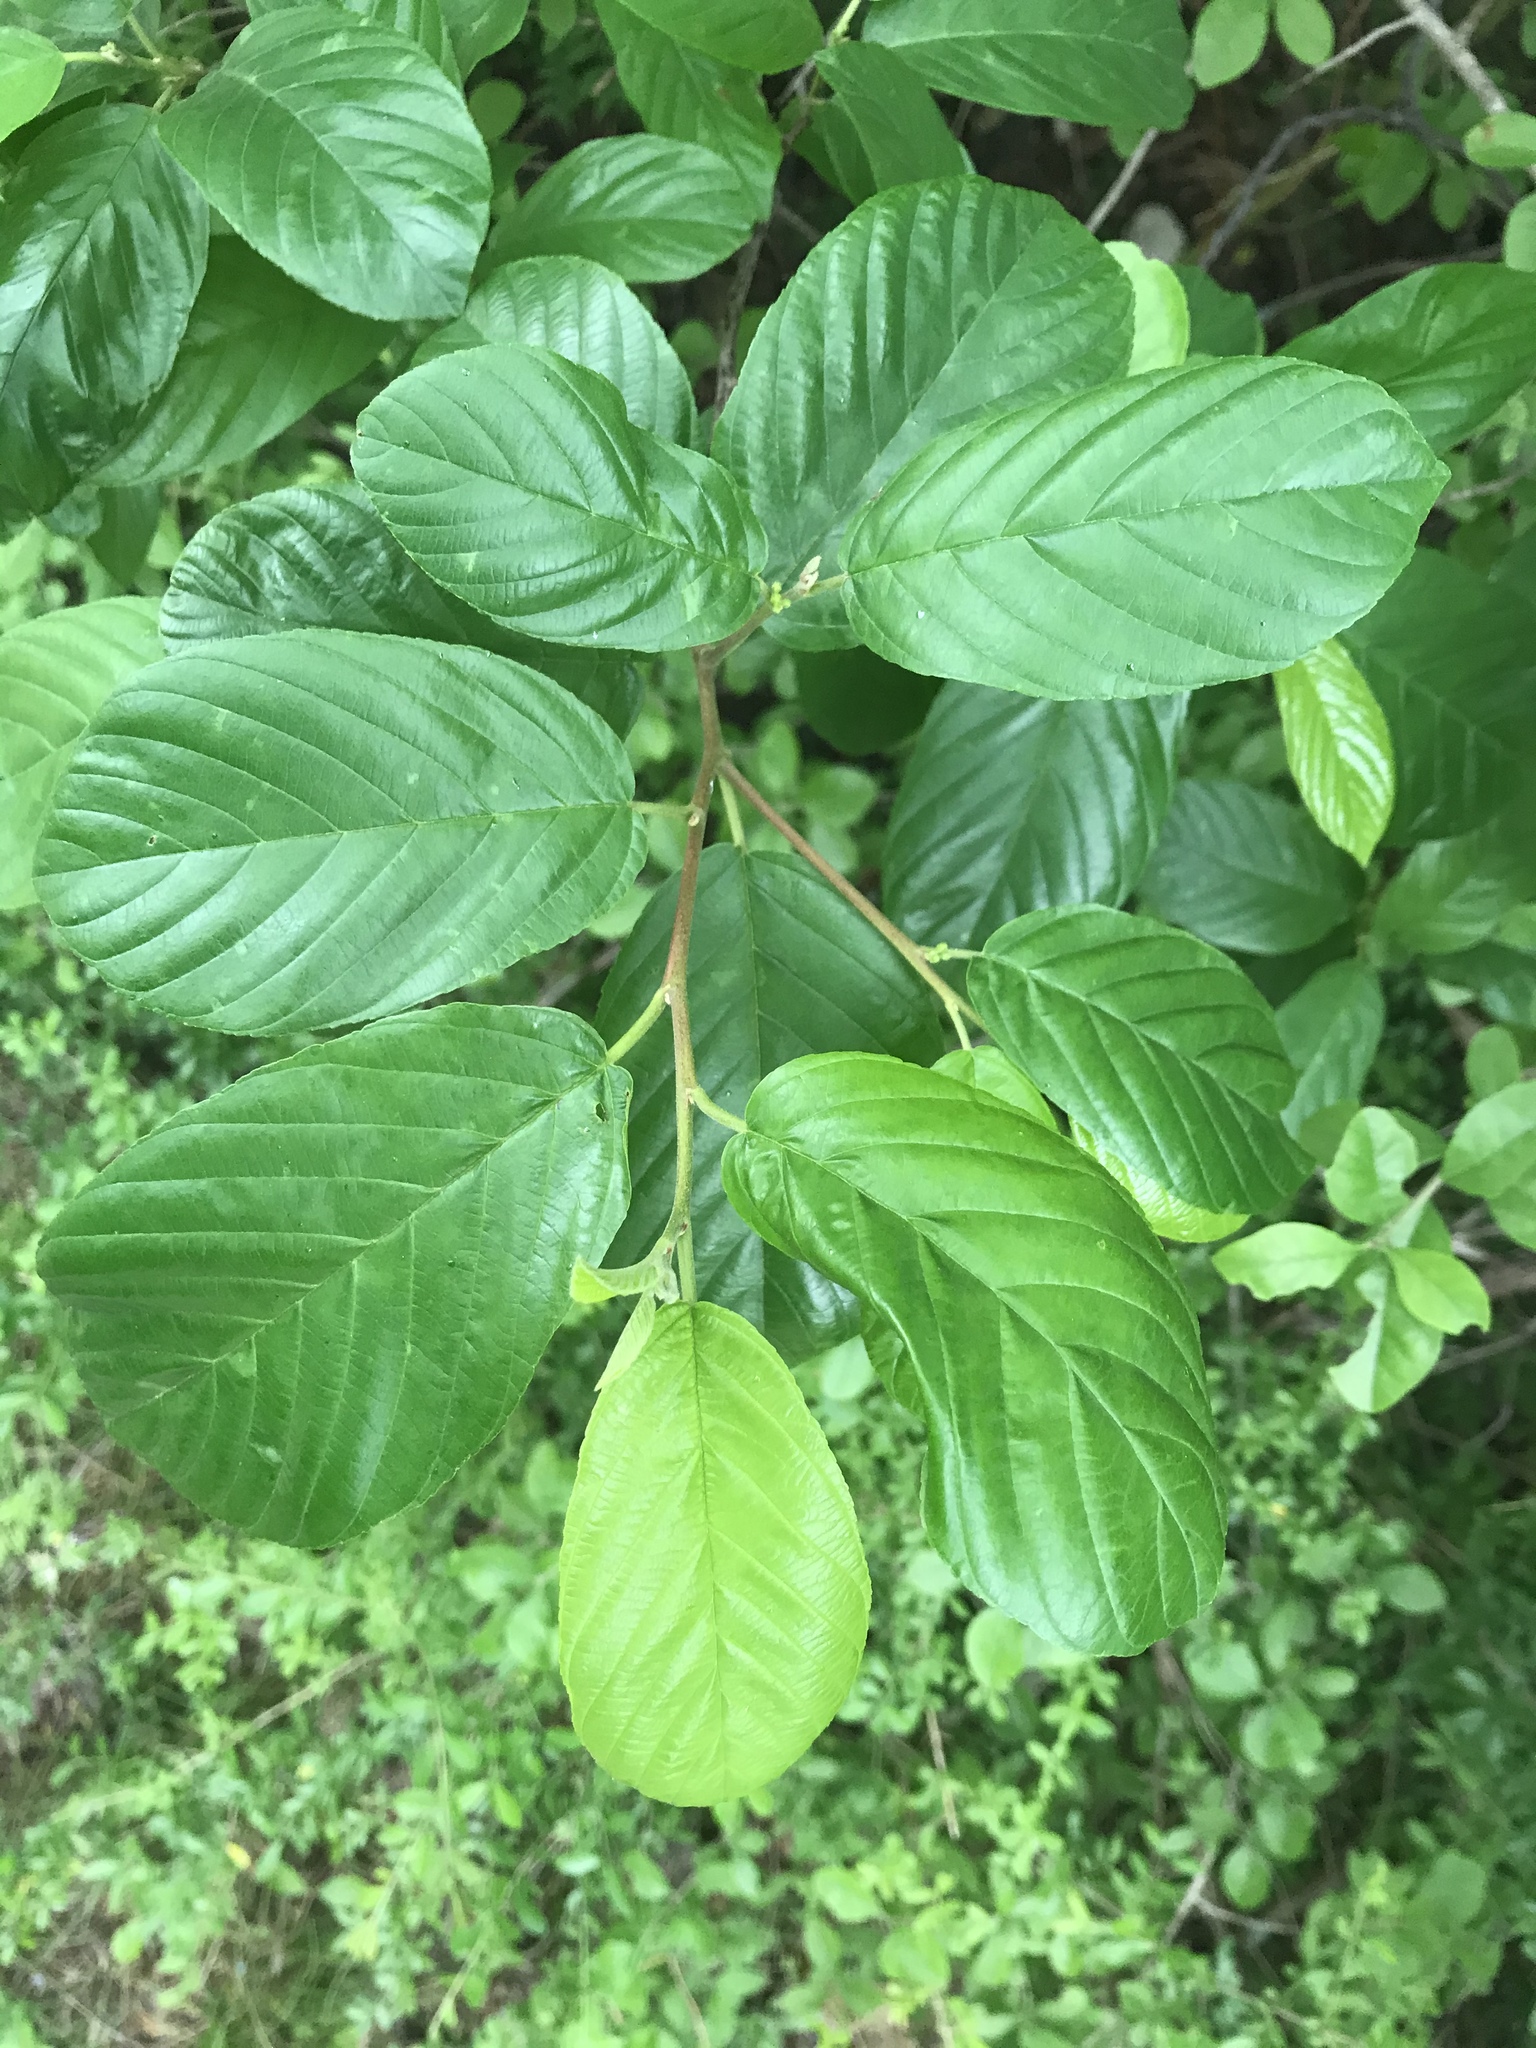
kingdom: Plantae
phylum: Tracheophyta
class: Magnoliopsida
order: Rosales
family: Rhamnaceae
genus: Frangula
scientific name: Frangula caroliniana
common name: Carolina buckthorn
